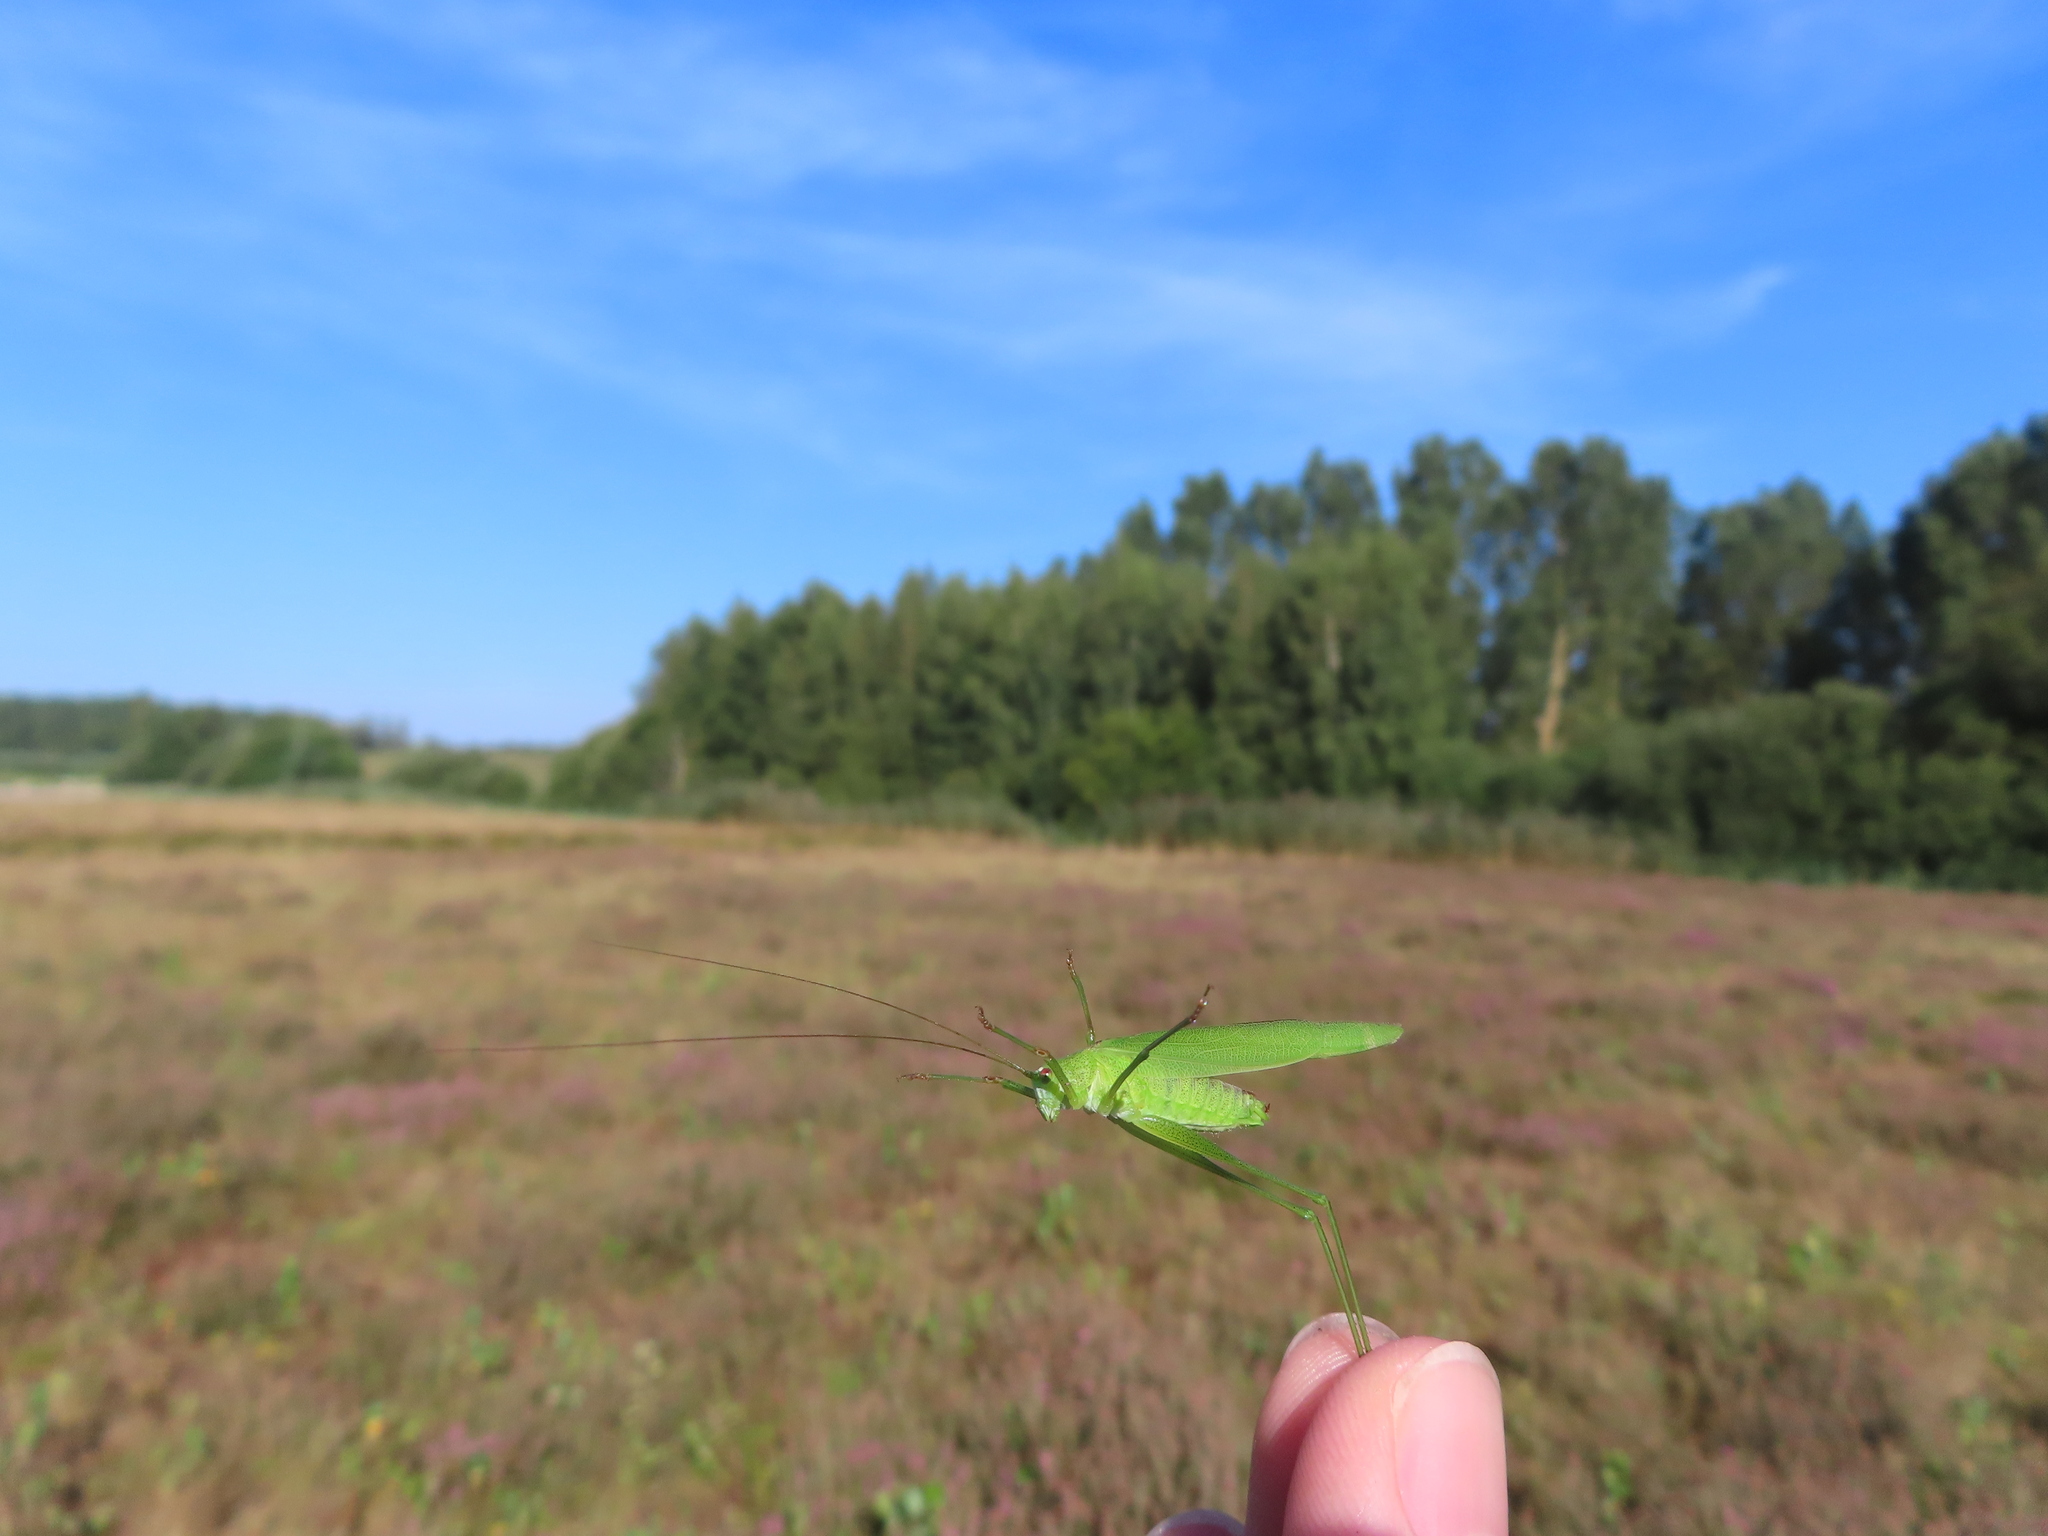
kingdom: Animalia
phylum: Arthropoda
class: Insecta
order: Orthoptera
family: Tettigoniidae
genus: Phaneroptera
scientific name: Phaneroptera falcata
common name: Sickle-bearing bush-cricket
